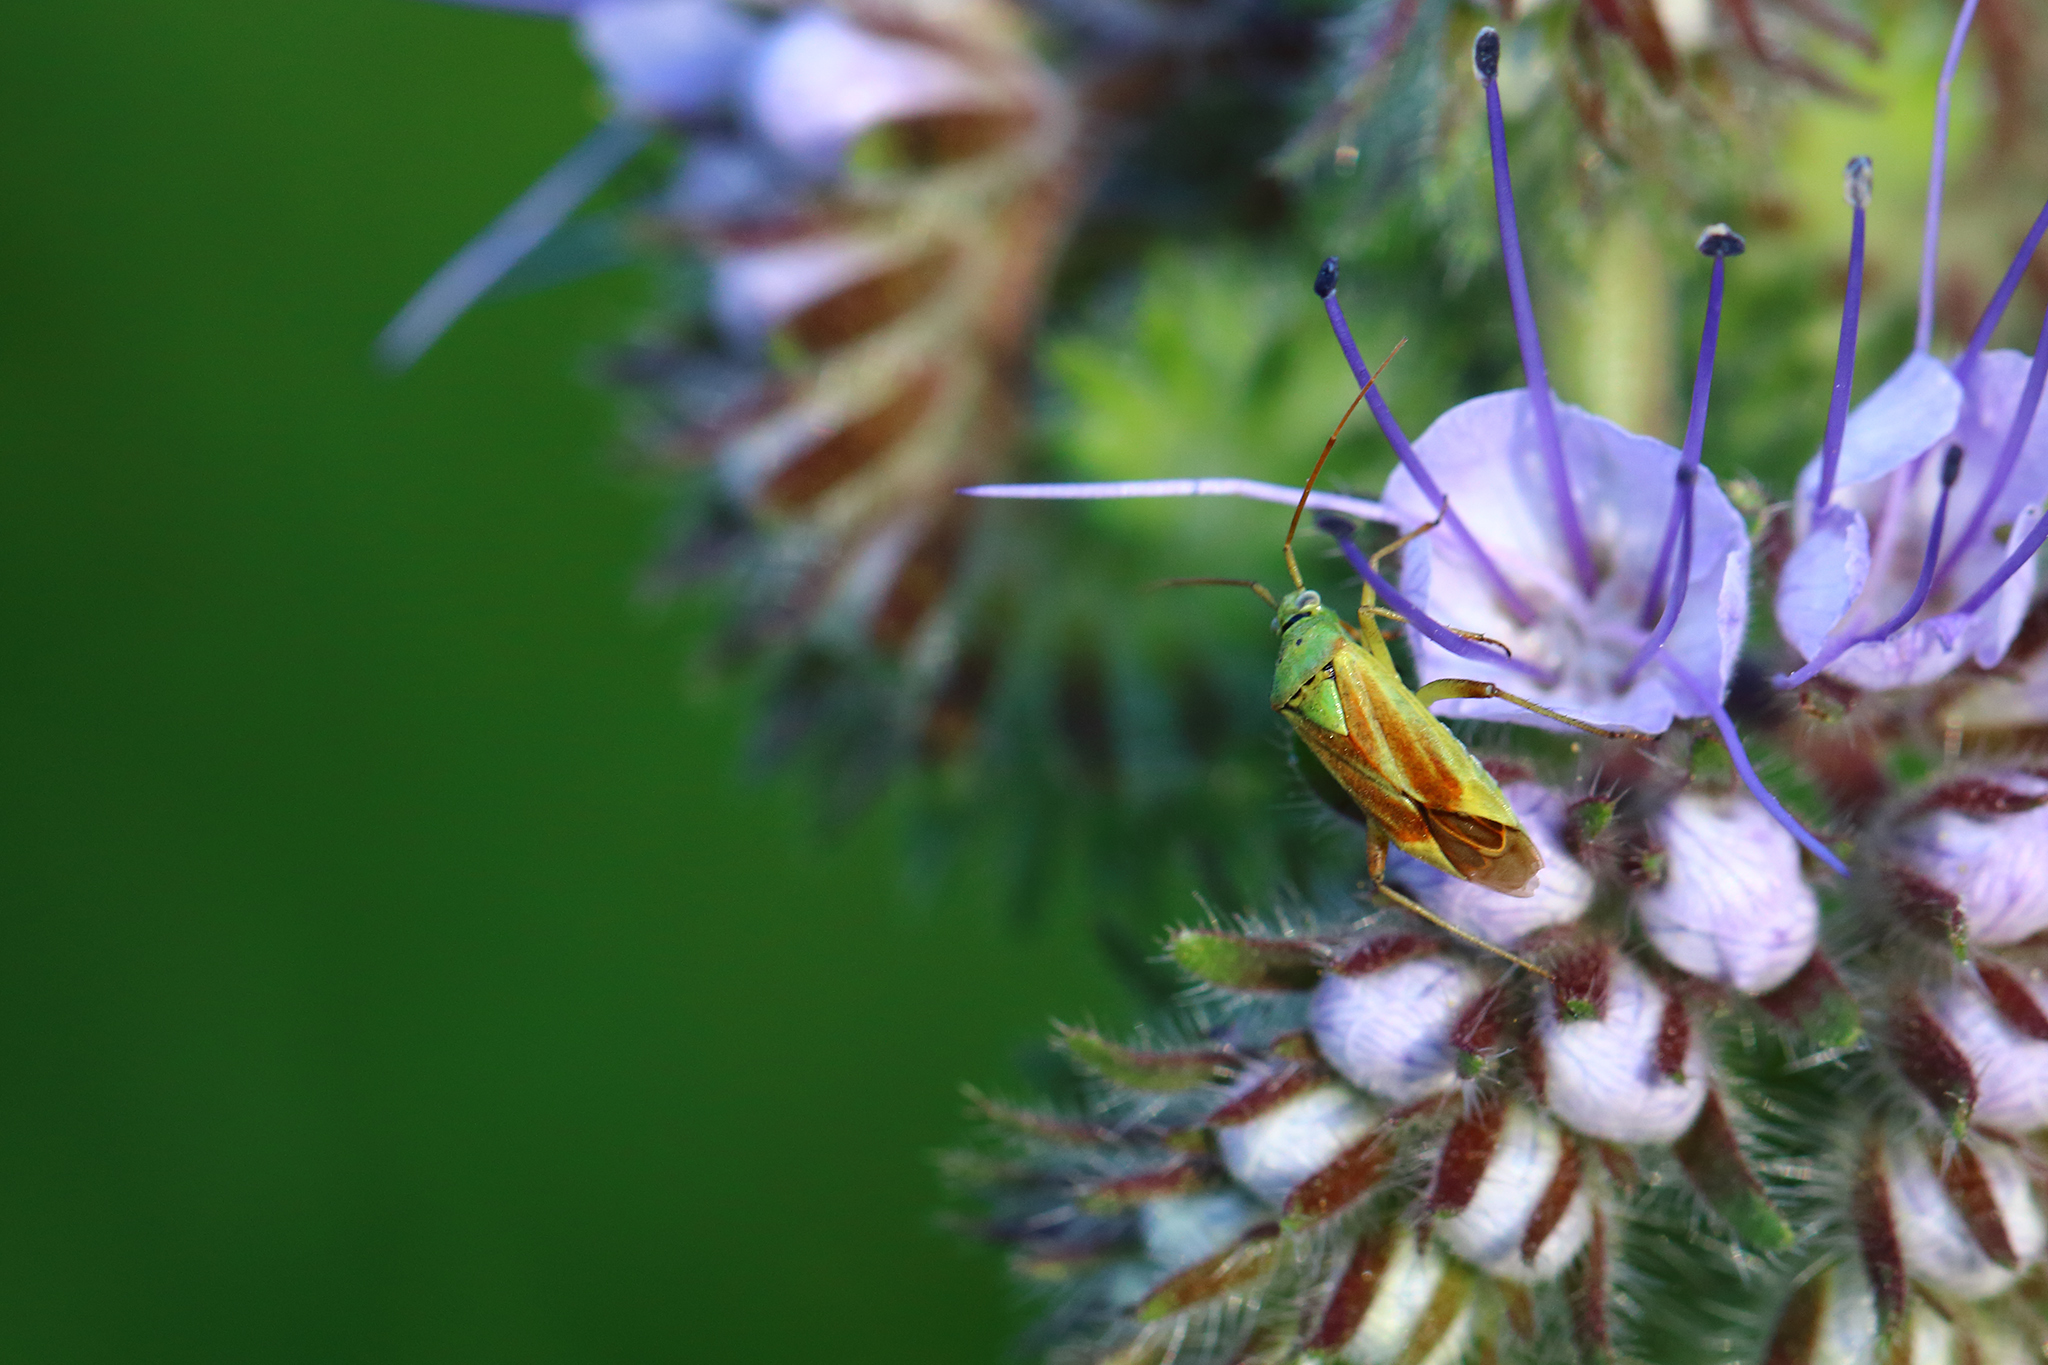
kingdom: Animalia
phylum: Arthropoda
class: Insecta
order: Hemiptera
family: Miridae
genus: Closterotomus
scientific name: Closterotomus norvegicus
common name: Plant bug
